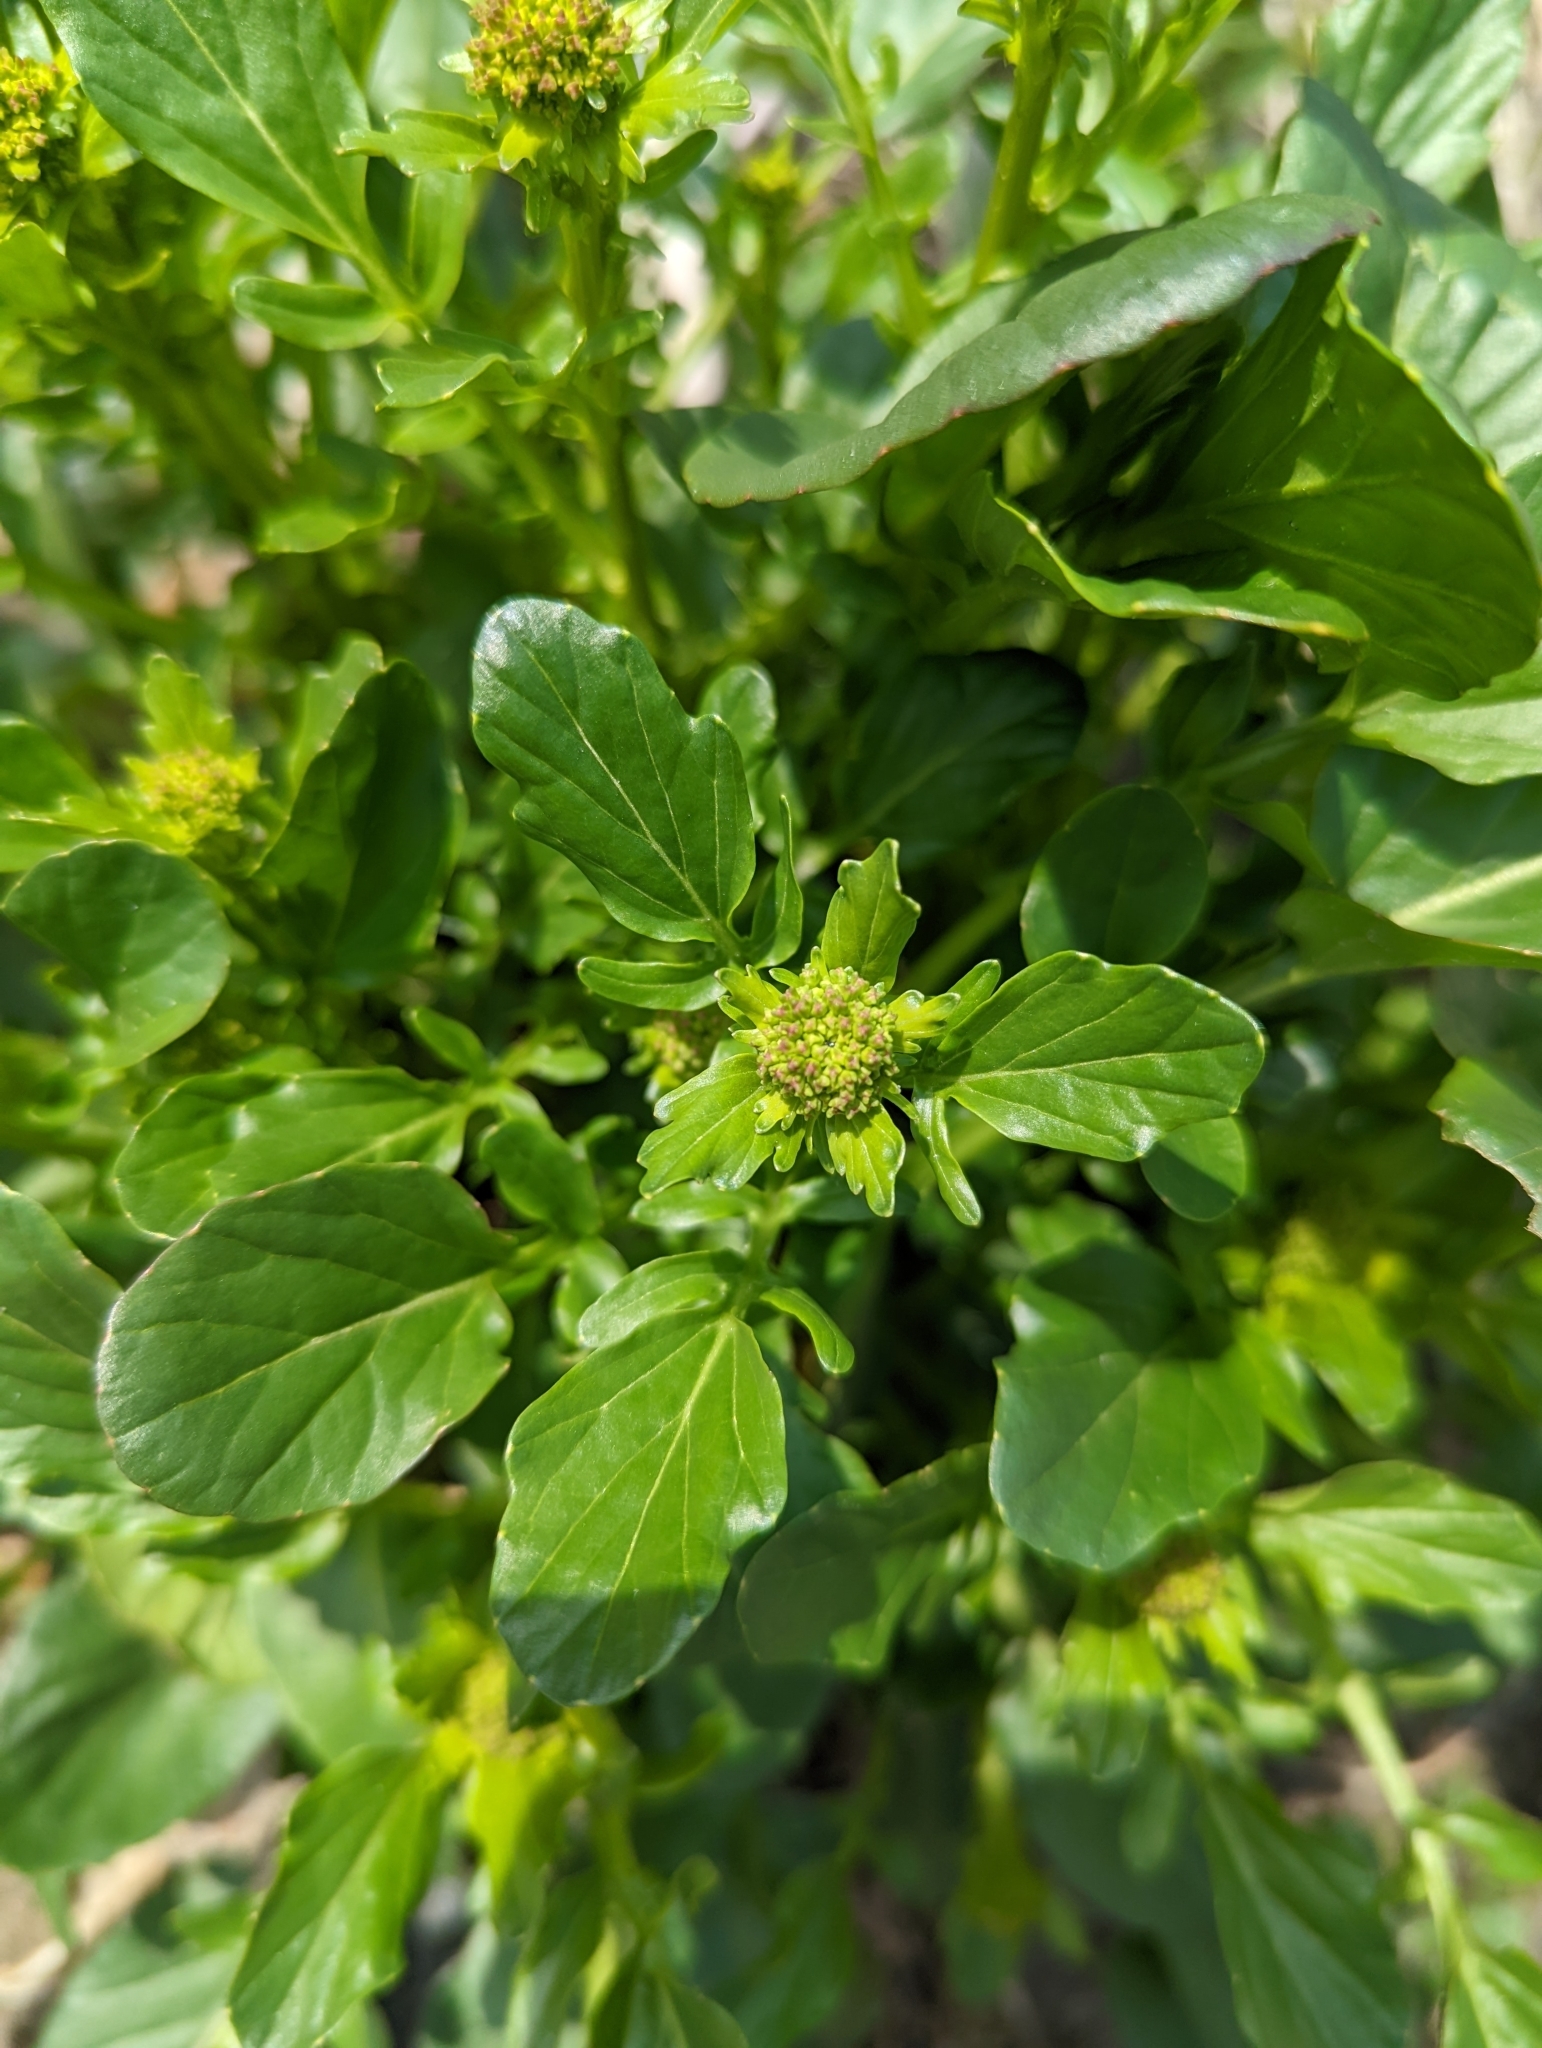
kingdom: Plantae
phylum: Tracheophyta
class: Magnoliopsida
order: Brassicales
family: Brassicaceae
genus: Barbarea
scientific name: Barbarea vulgaris
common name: Cressy-greens
